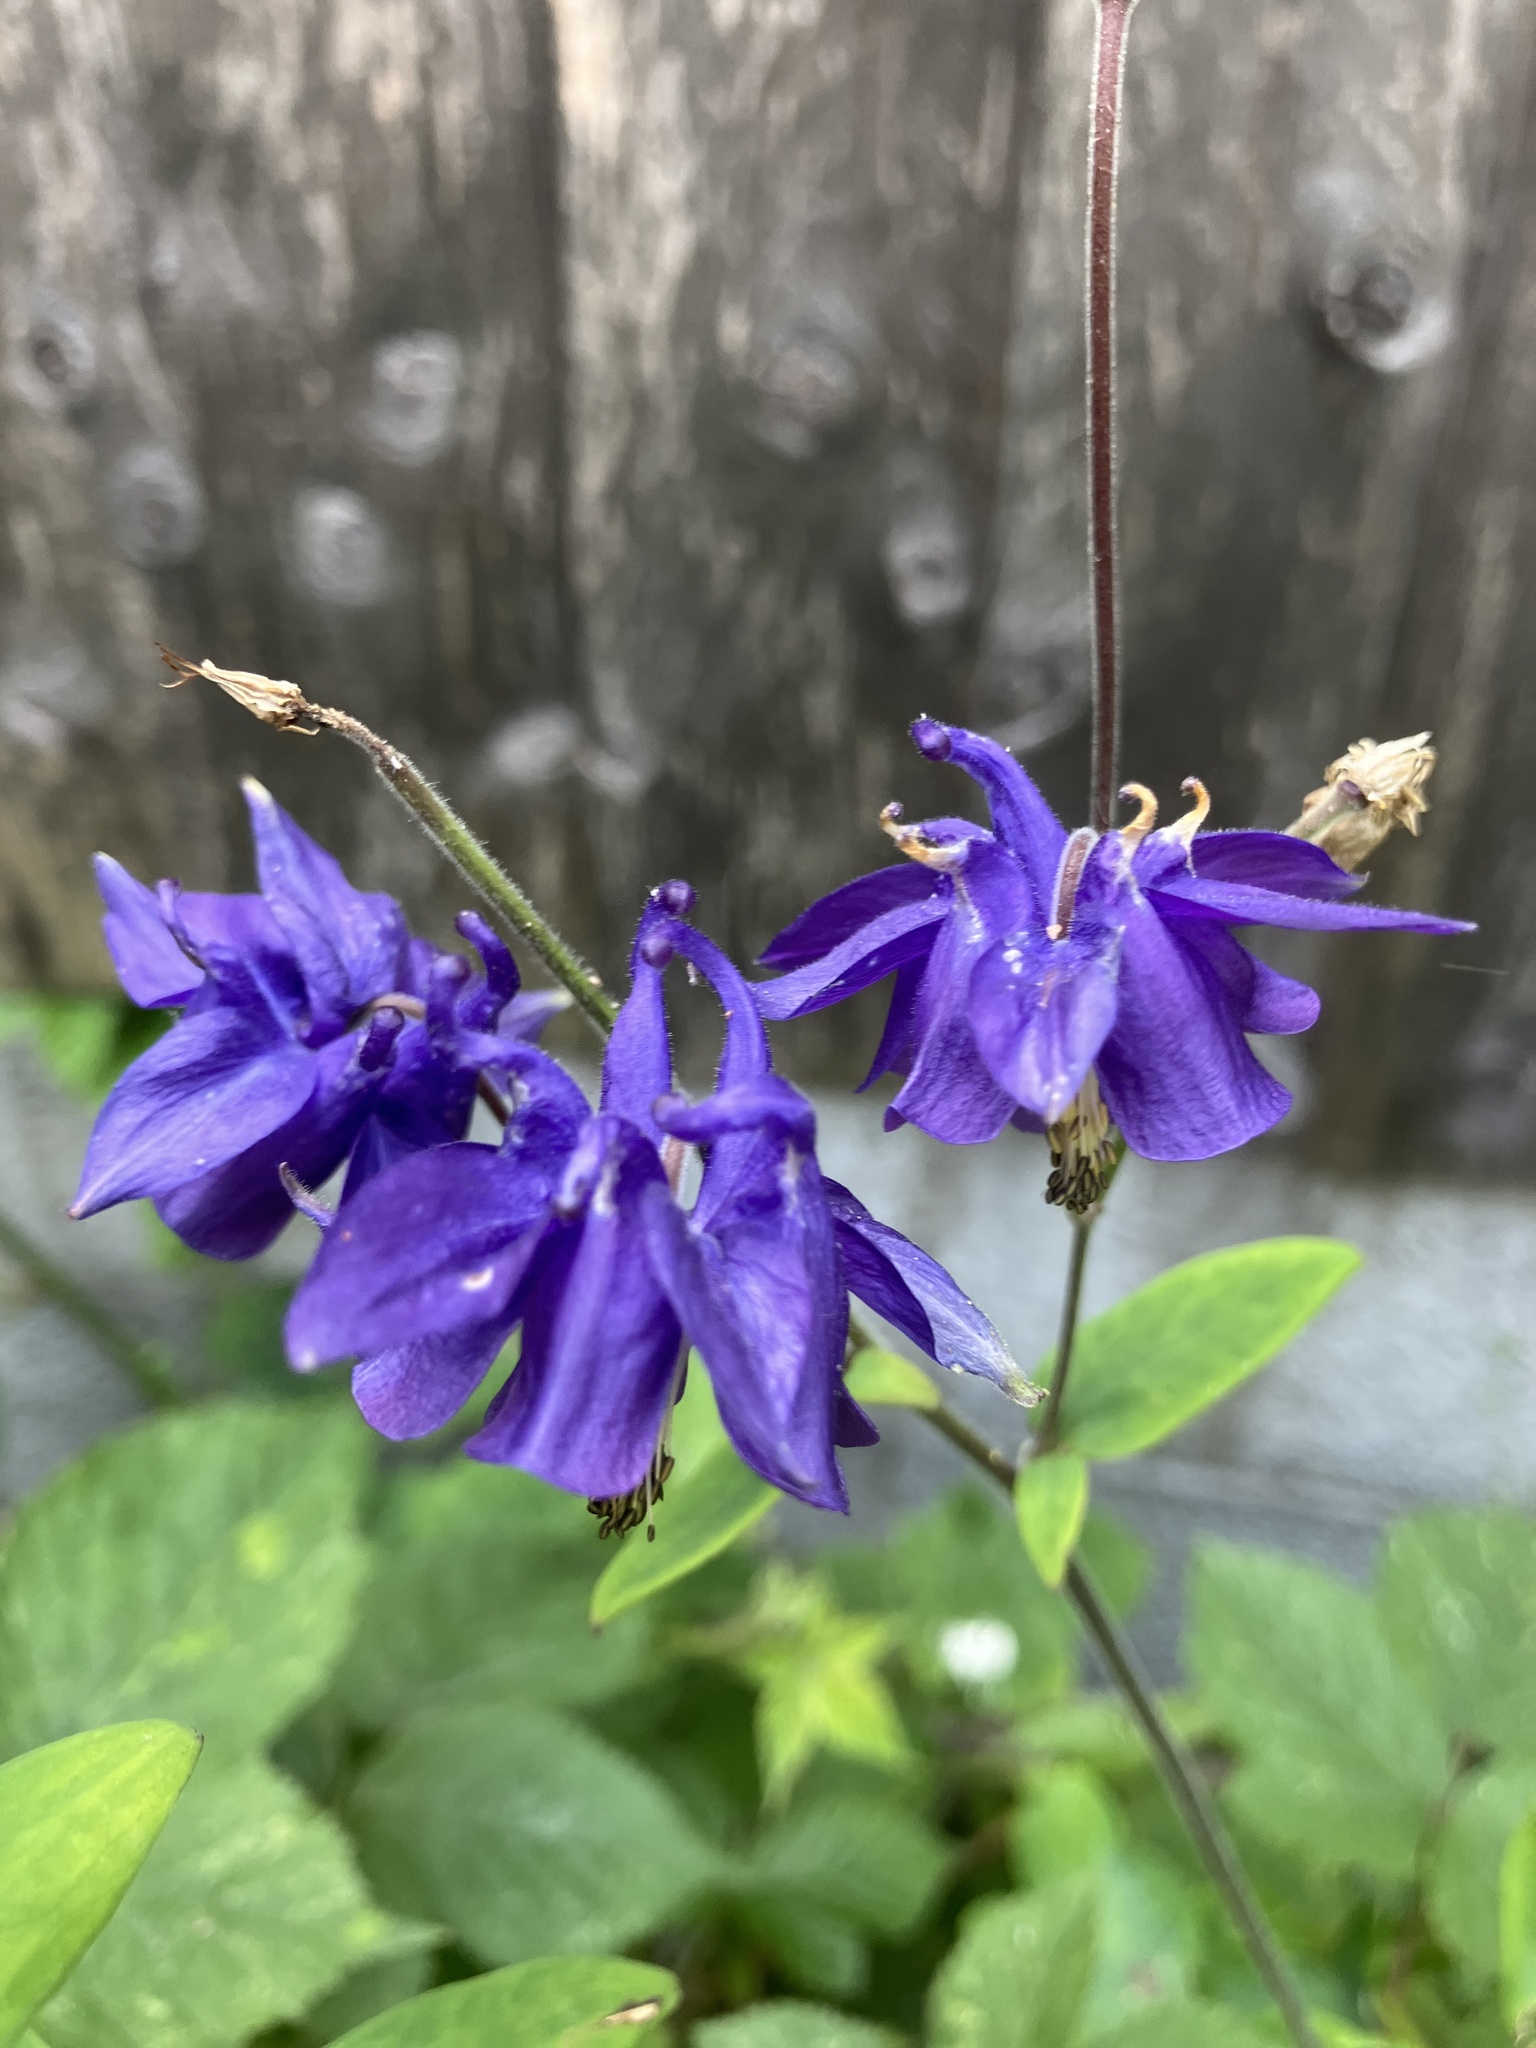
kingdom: Plantae
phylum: Tracheophyta
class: Magnoliopsida
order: Ranunculales
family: Ranunculaceae
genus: Aquilegia
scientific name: Aquilegia vulgaris
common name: Columbine
